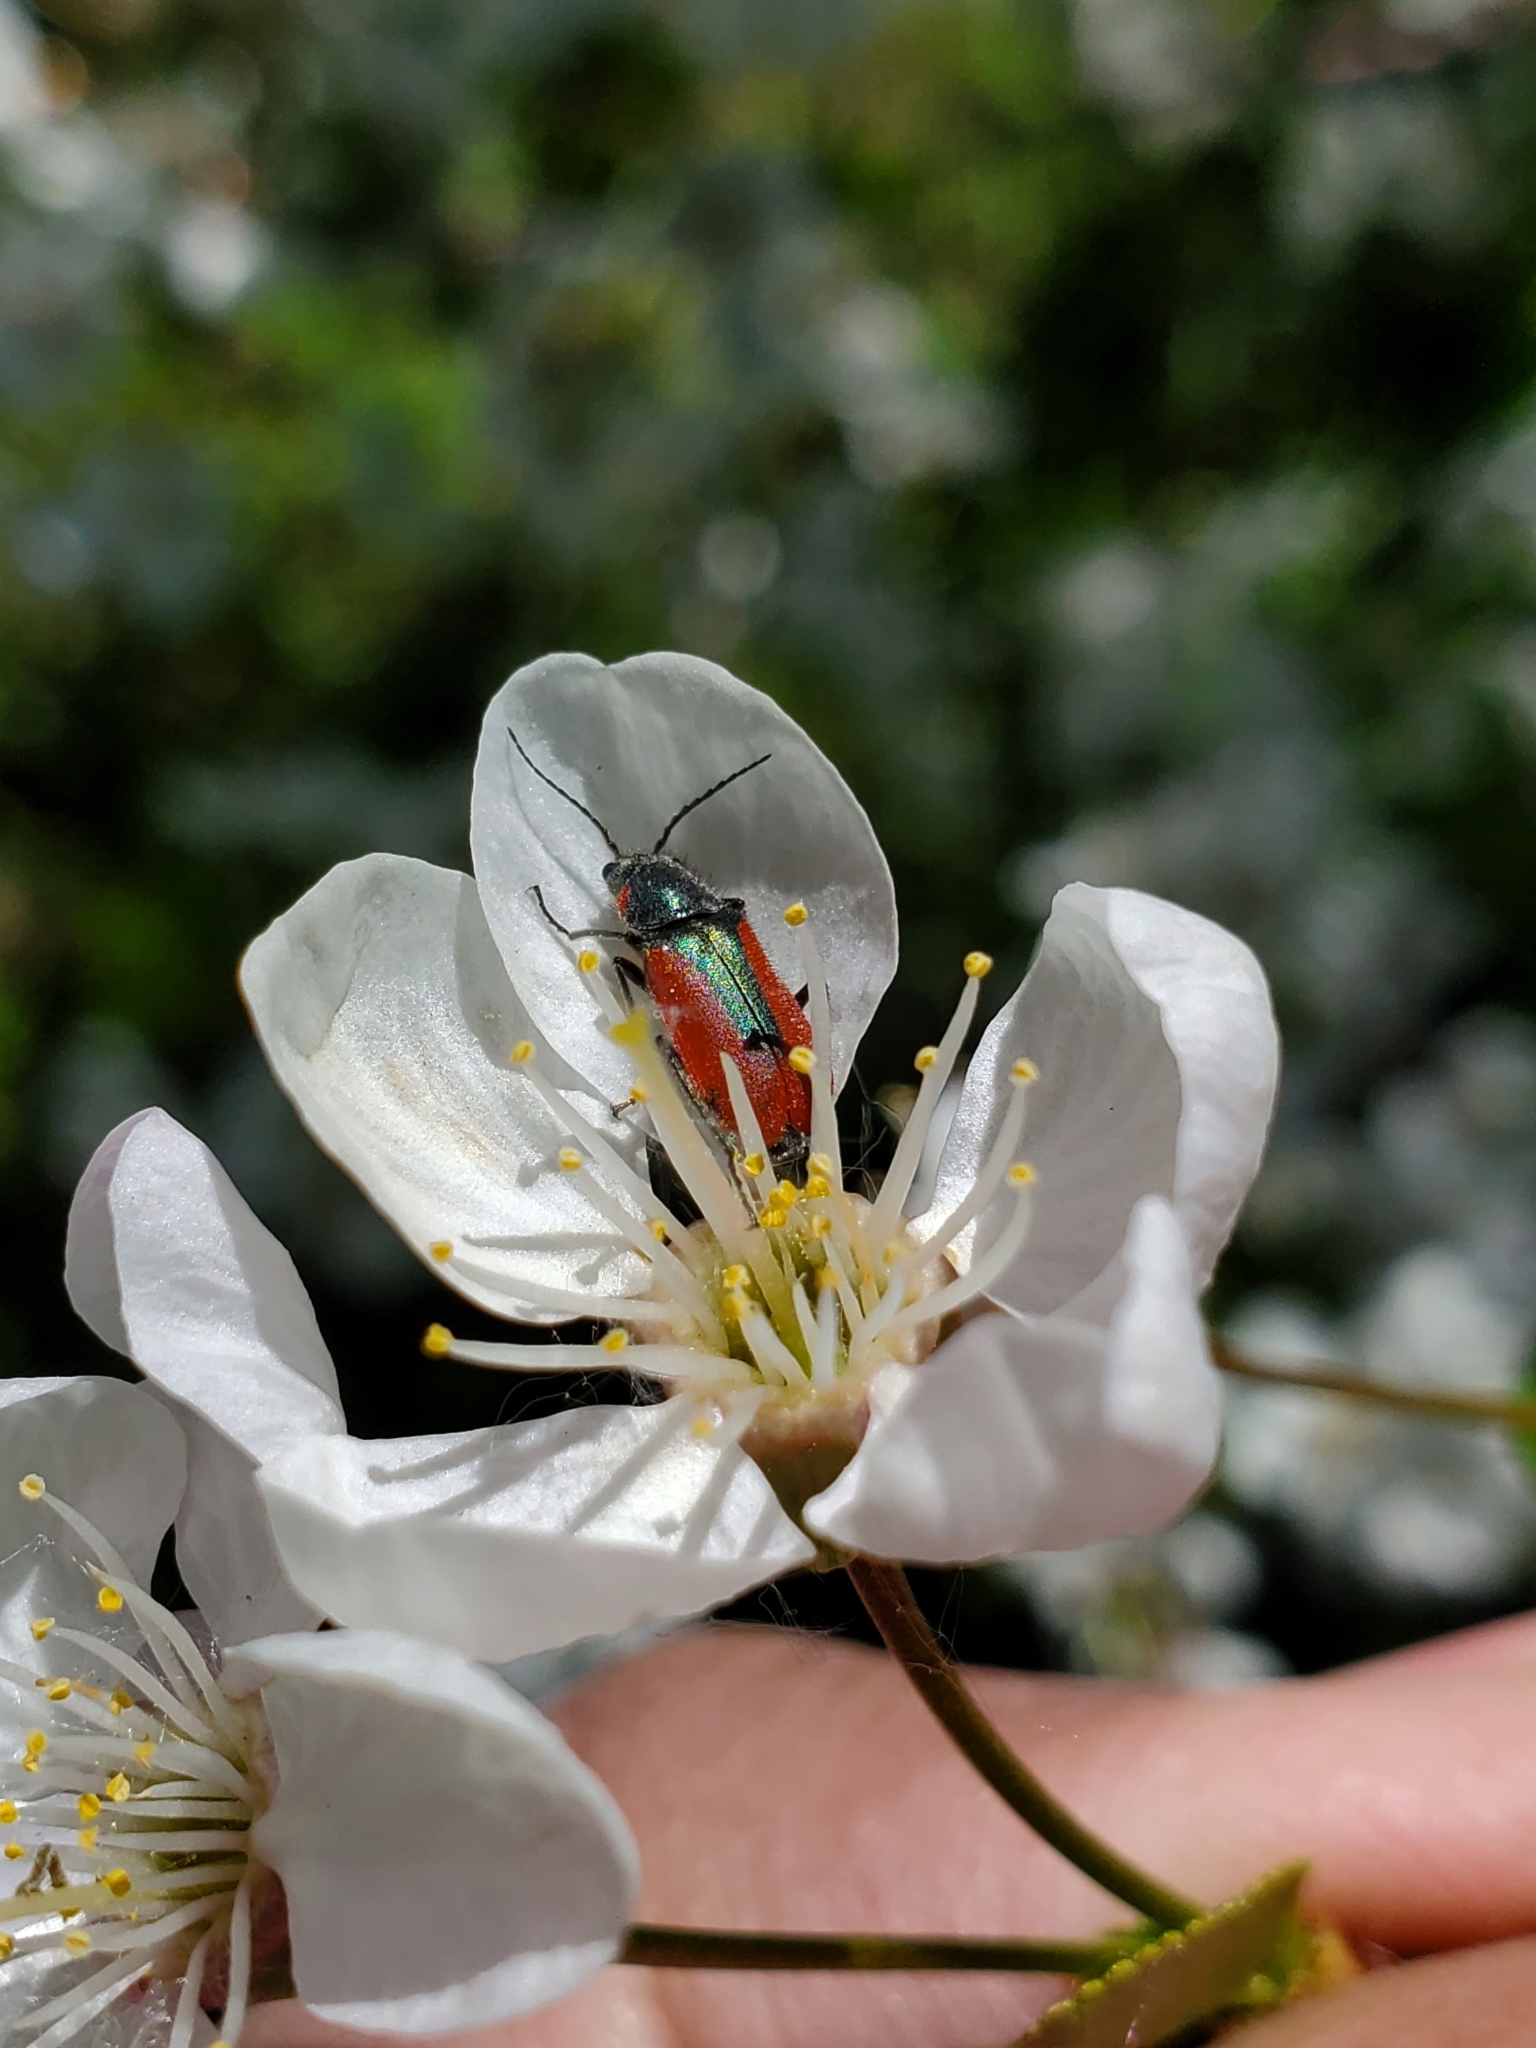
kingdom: Animalia
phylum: Arthropoda
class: Insecta
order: Coleoptera
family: Melyridae
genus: Malachius
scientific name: Malachius aeneus
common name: Scarlet malachite beetle
